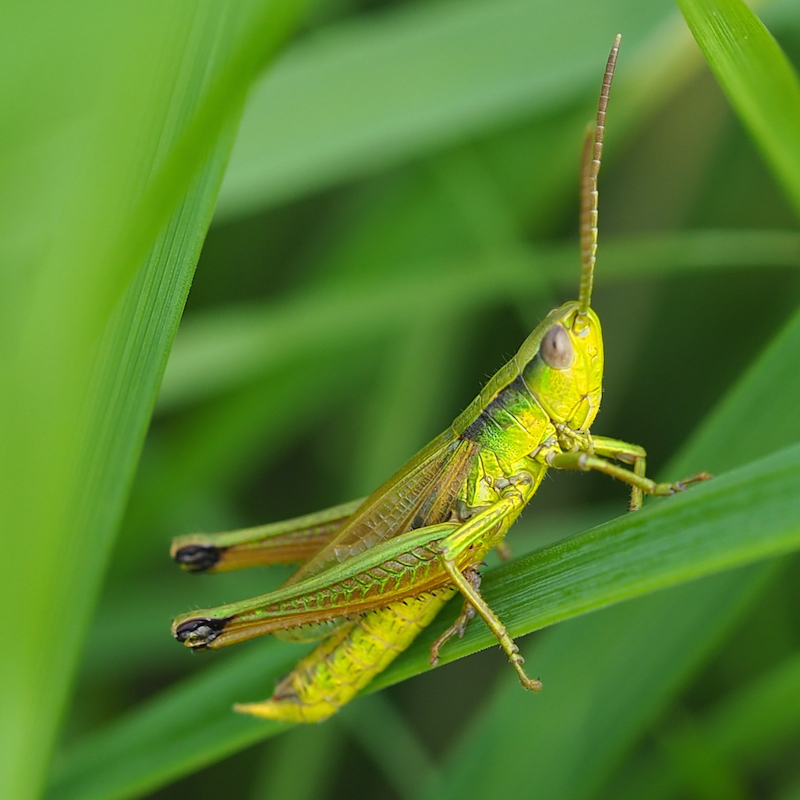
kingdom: Animalia
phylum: Arthropoda
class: Insecta
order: Orthoptera
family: Acrididae
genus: Chrysochraon
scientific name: Chrysochraon dispar
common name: Large gold grasshopper
